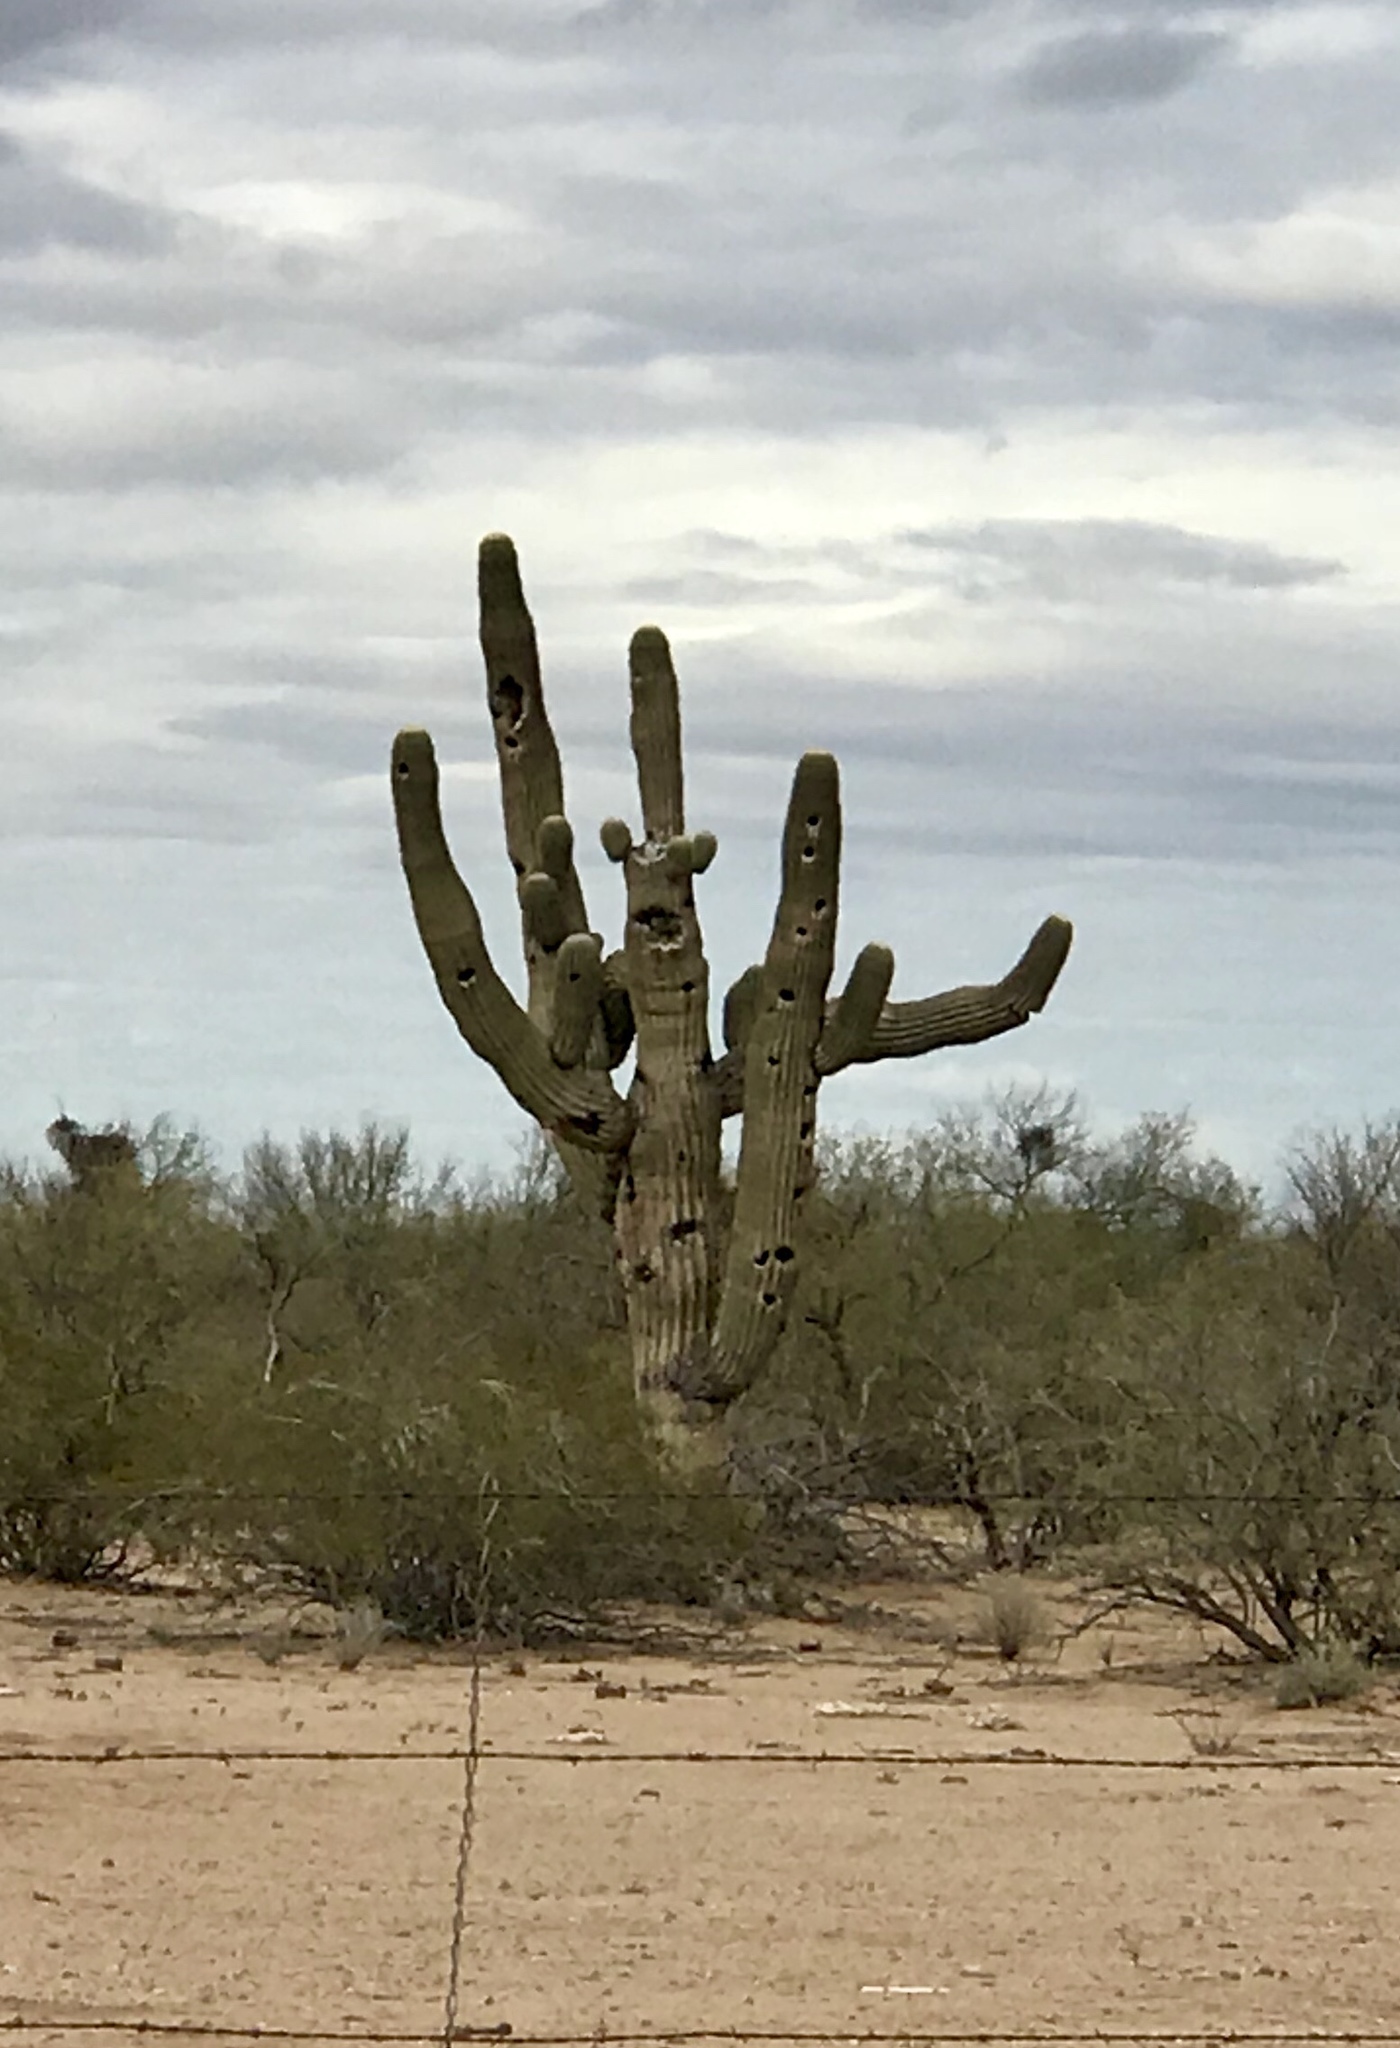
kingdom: Plantae
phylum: Tracheophyta
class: Magnoliopsida
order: Caryophyllales
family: Cactaceae
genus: Carnegiea
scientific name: Carnegiea gigantea
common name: Saguaro
